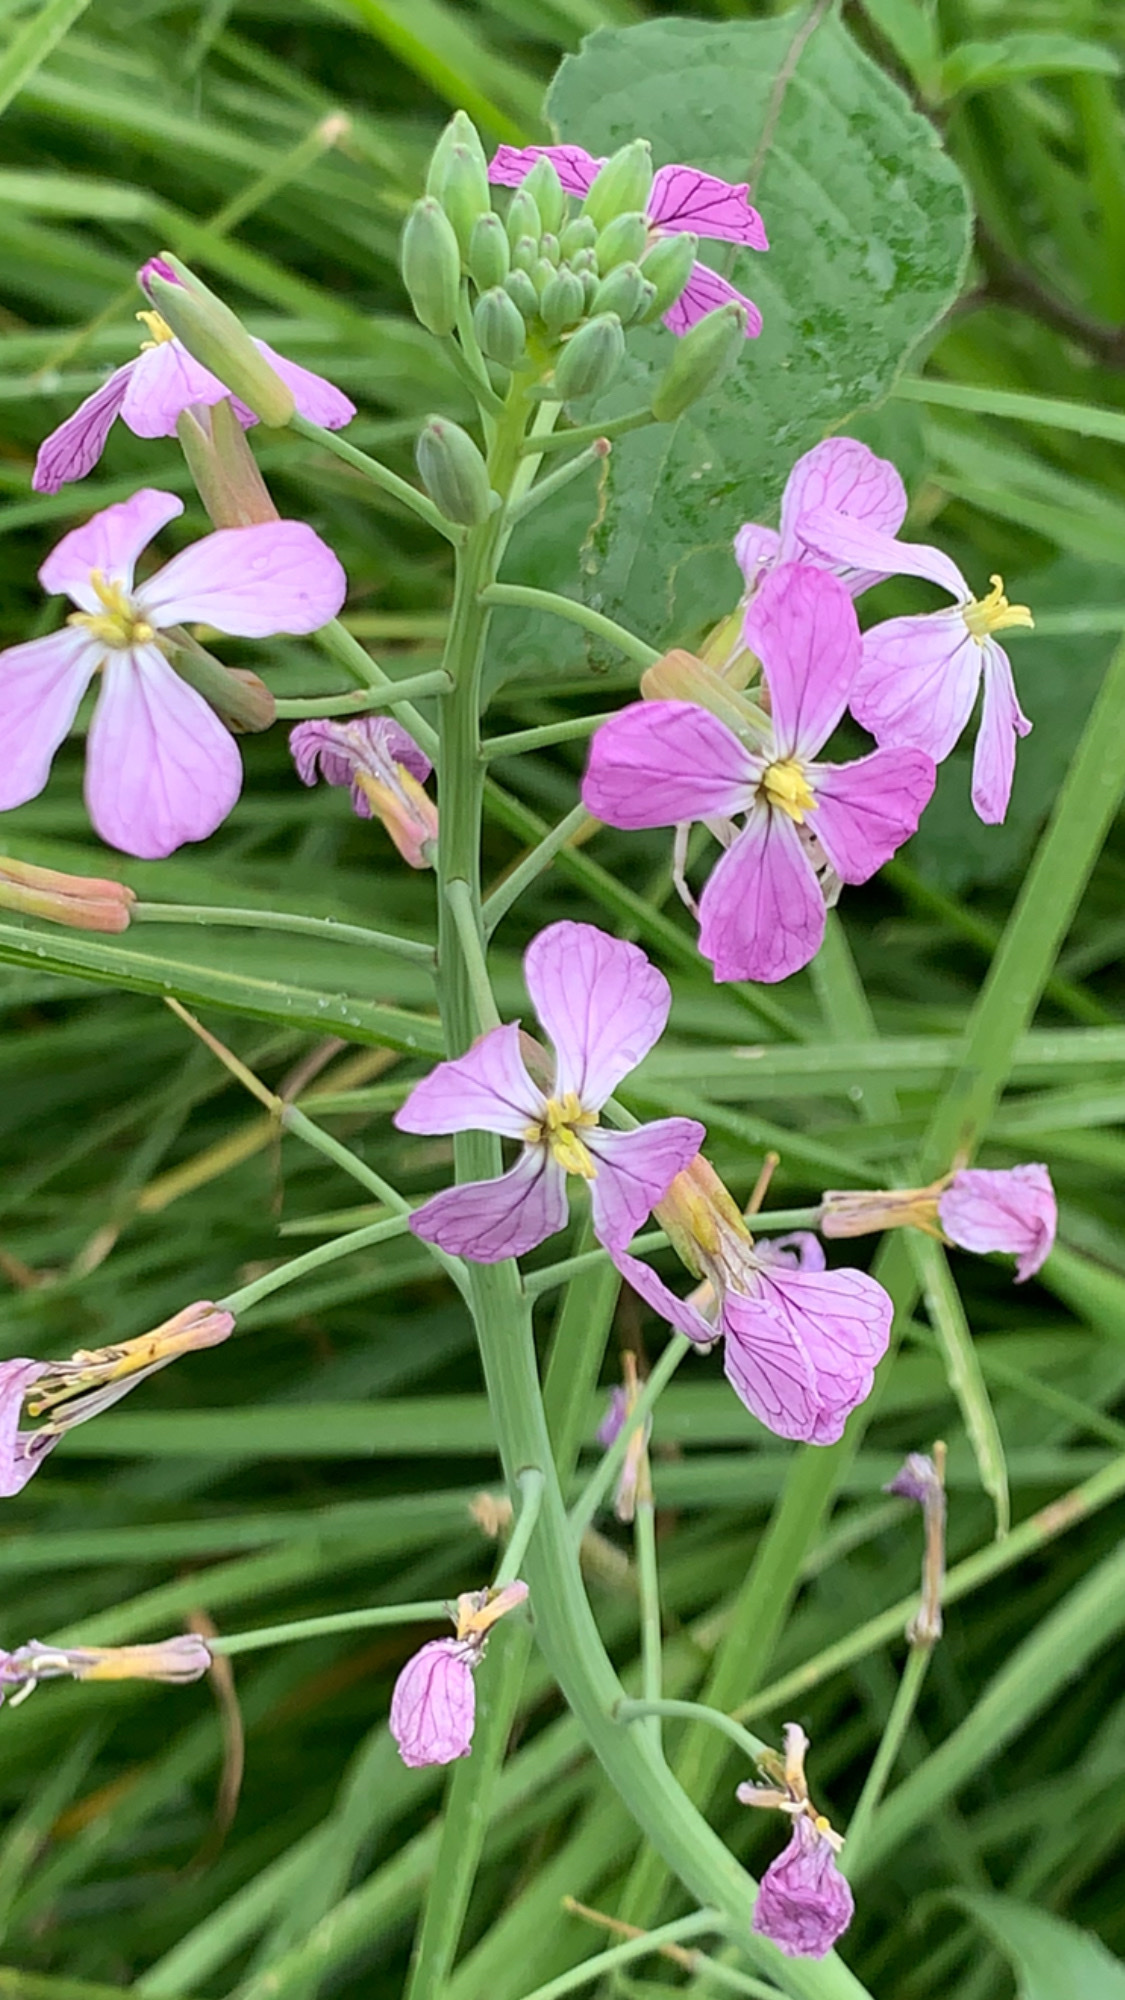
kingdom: Plantae
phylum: Tracheophyta
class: Magnoliopsida
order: Brassicales
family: Brassicaceae
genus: Raphanus
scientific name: Raphanus sativus
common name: Cultivated radish
